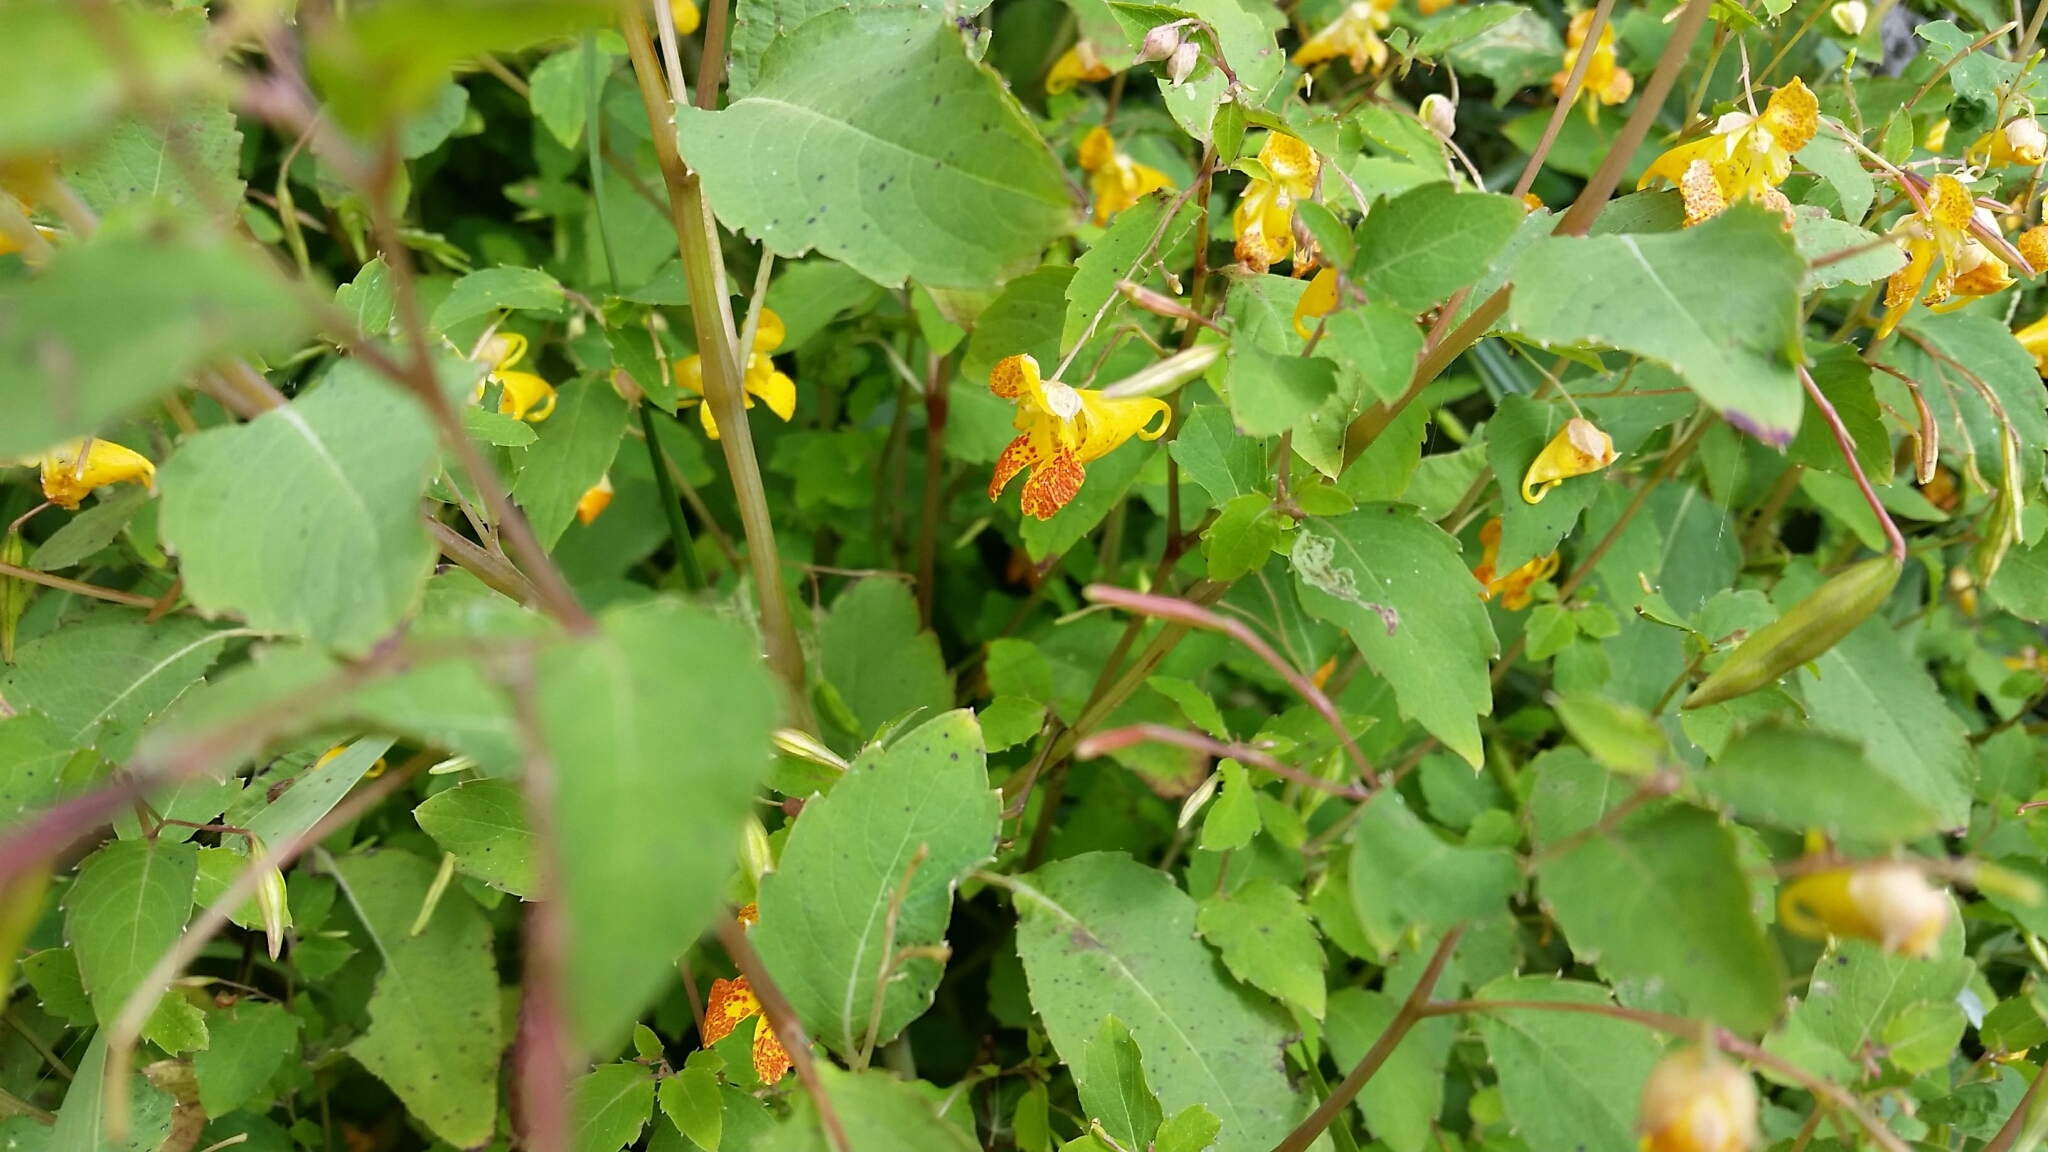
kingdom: Plantae
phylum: Tracheophyta
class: Magnoliopsida
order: Ericales
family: Balsaminaceae
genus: Impatiens
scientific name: Impatiens capensis
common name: Orange balsam
